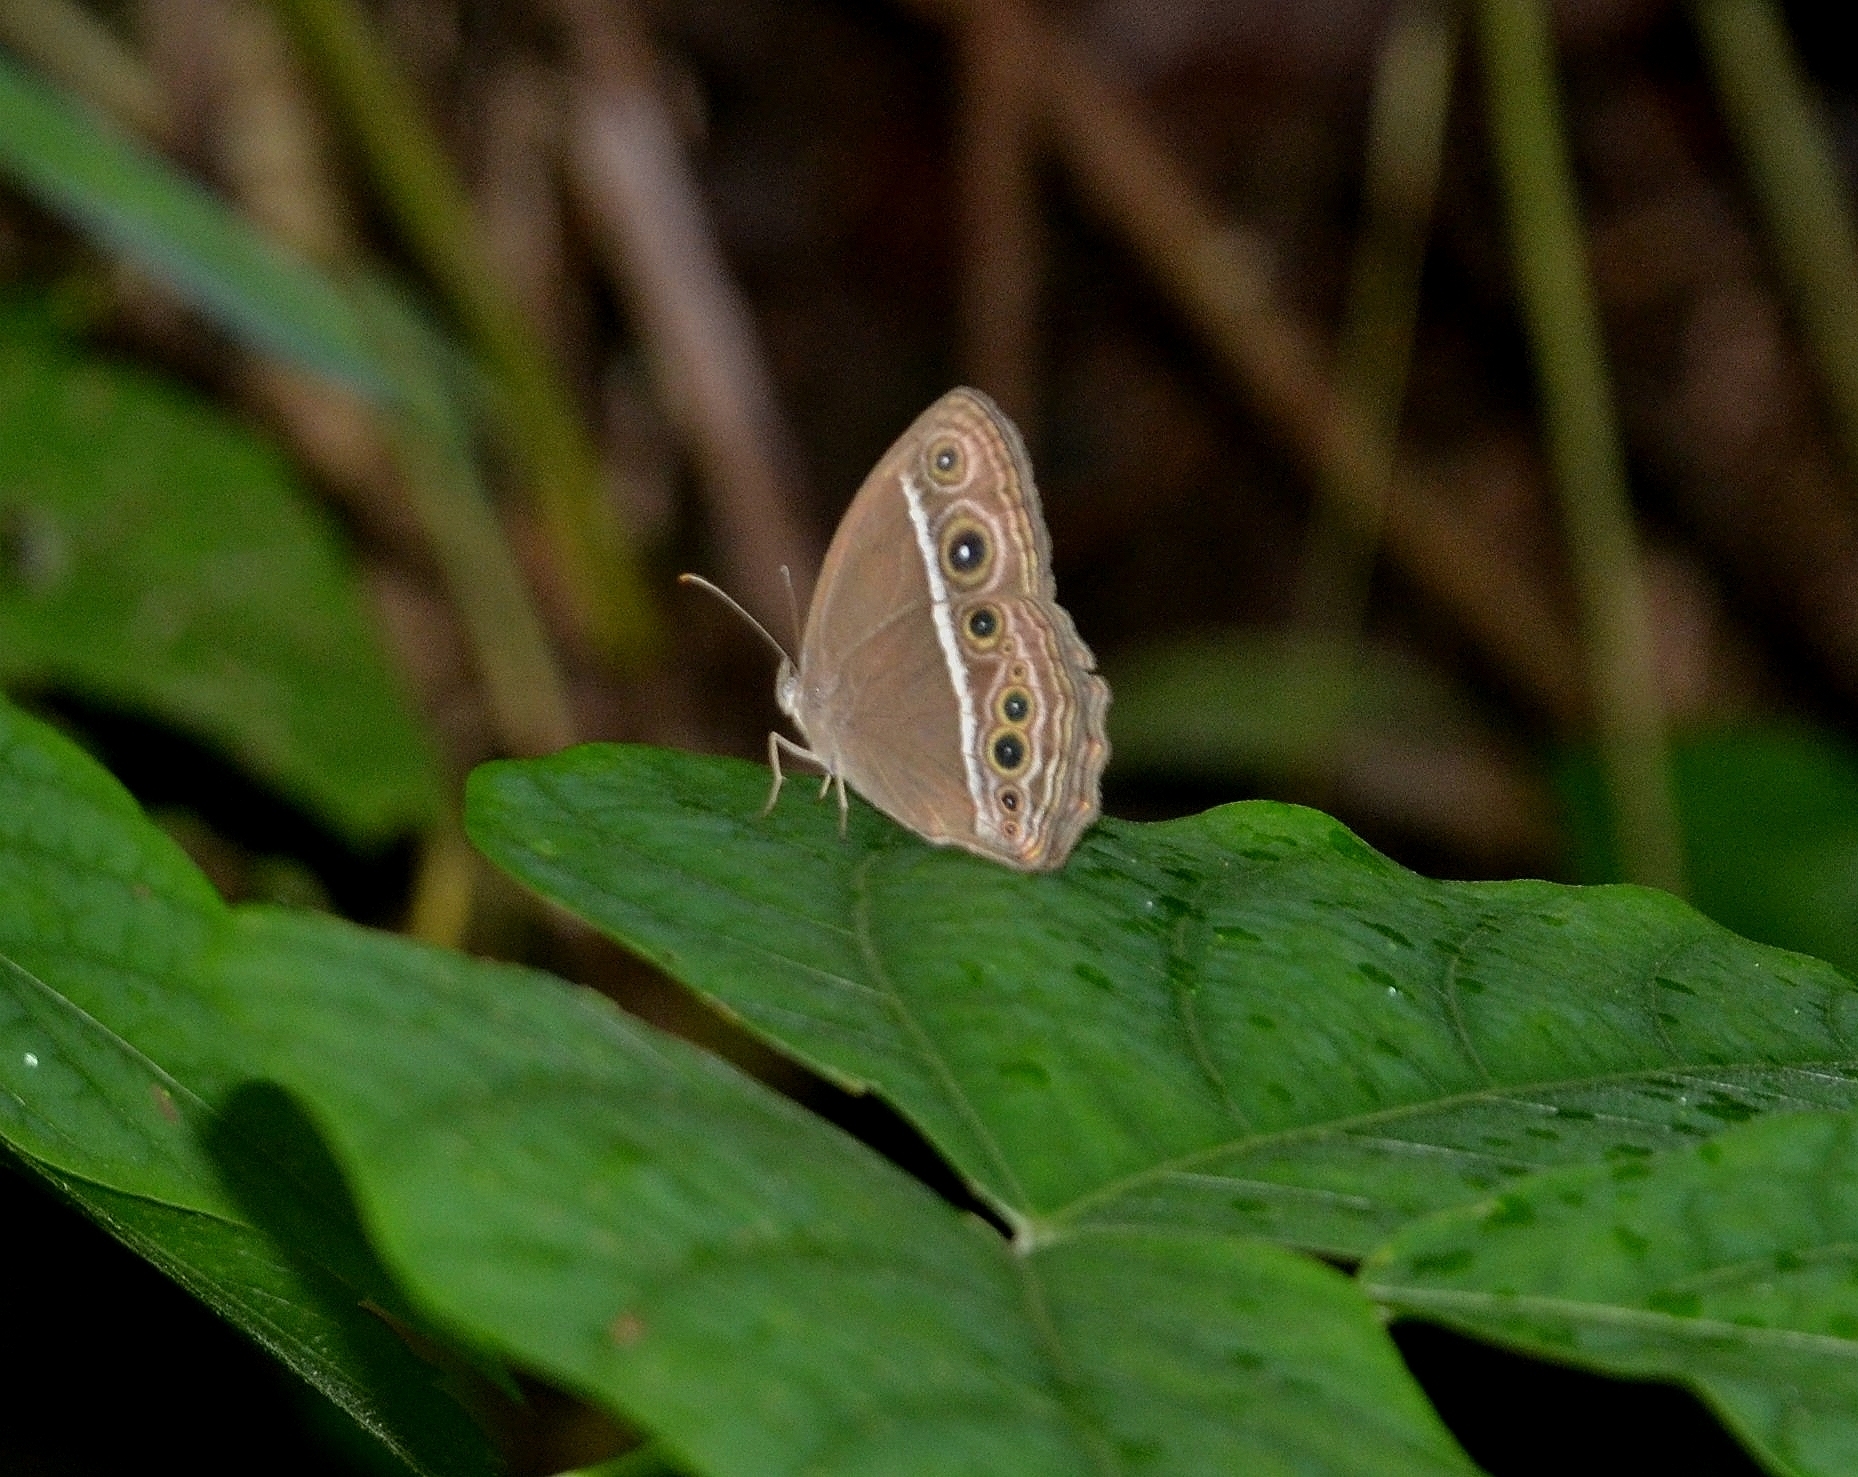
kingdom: Animalia
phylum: Arthropoda
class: Insecta
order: Lepidoptera
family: Nymphalidae
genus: Mycalesis
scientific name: Mycalesis mineus
